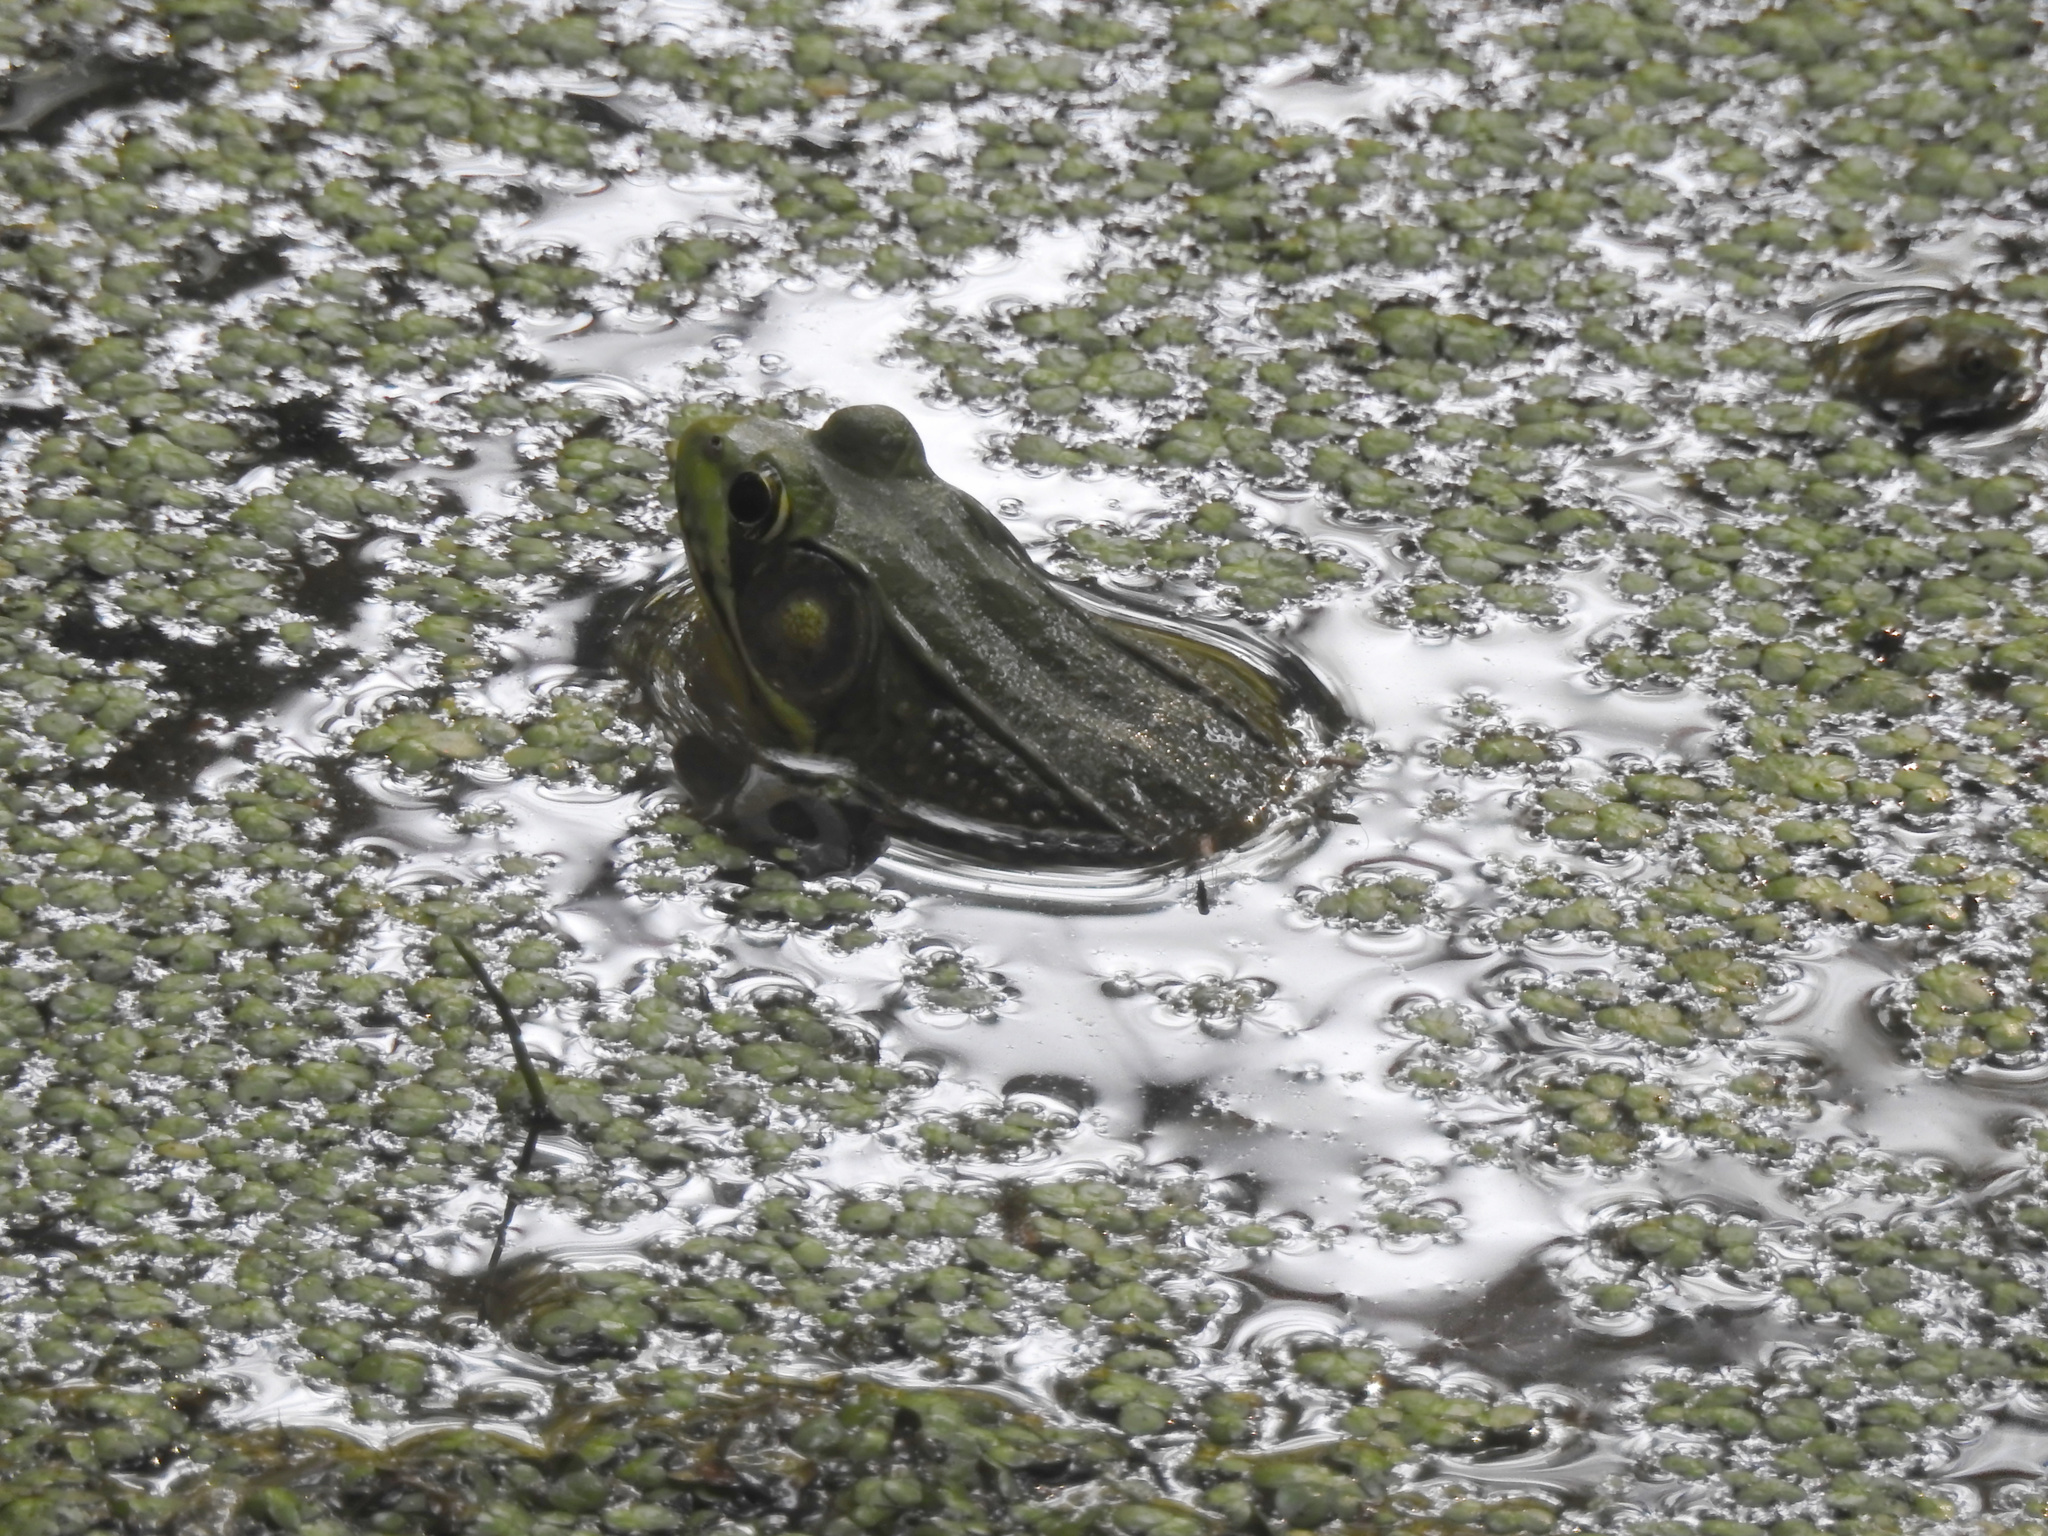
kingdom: Animalia
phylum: Chordata
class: Amphibia
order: Anura
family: Ranidae
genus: Lithobates
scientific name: Lithobates clamitans
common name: Green frog
